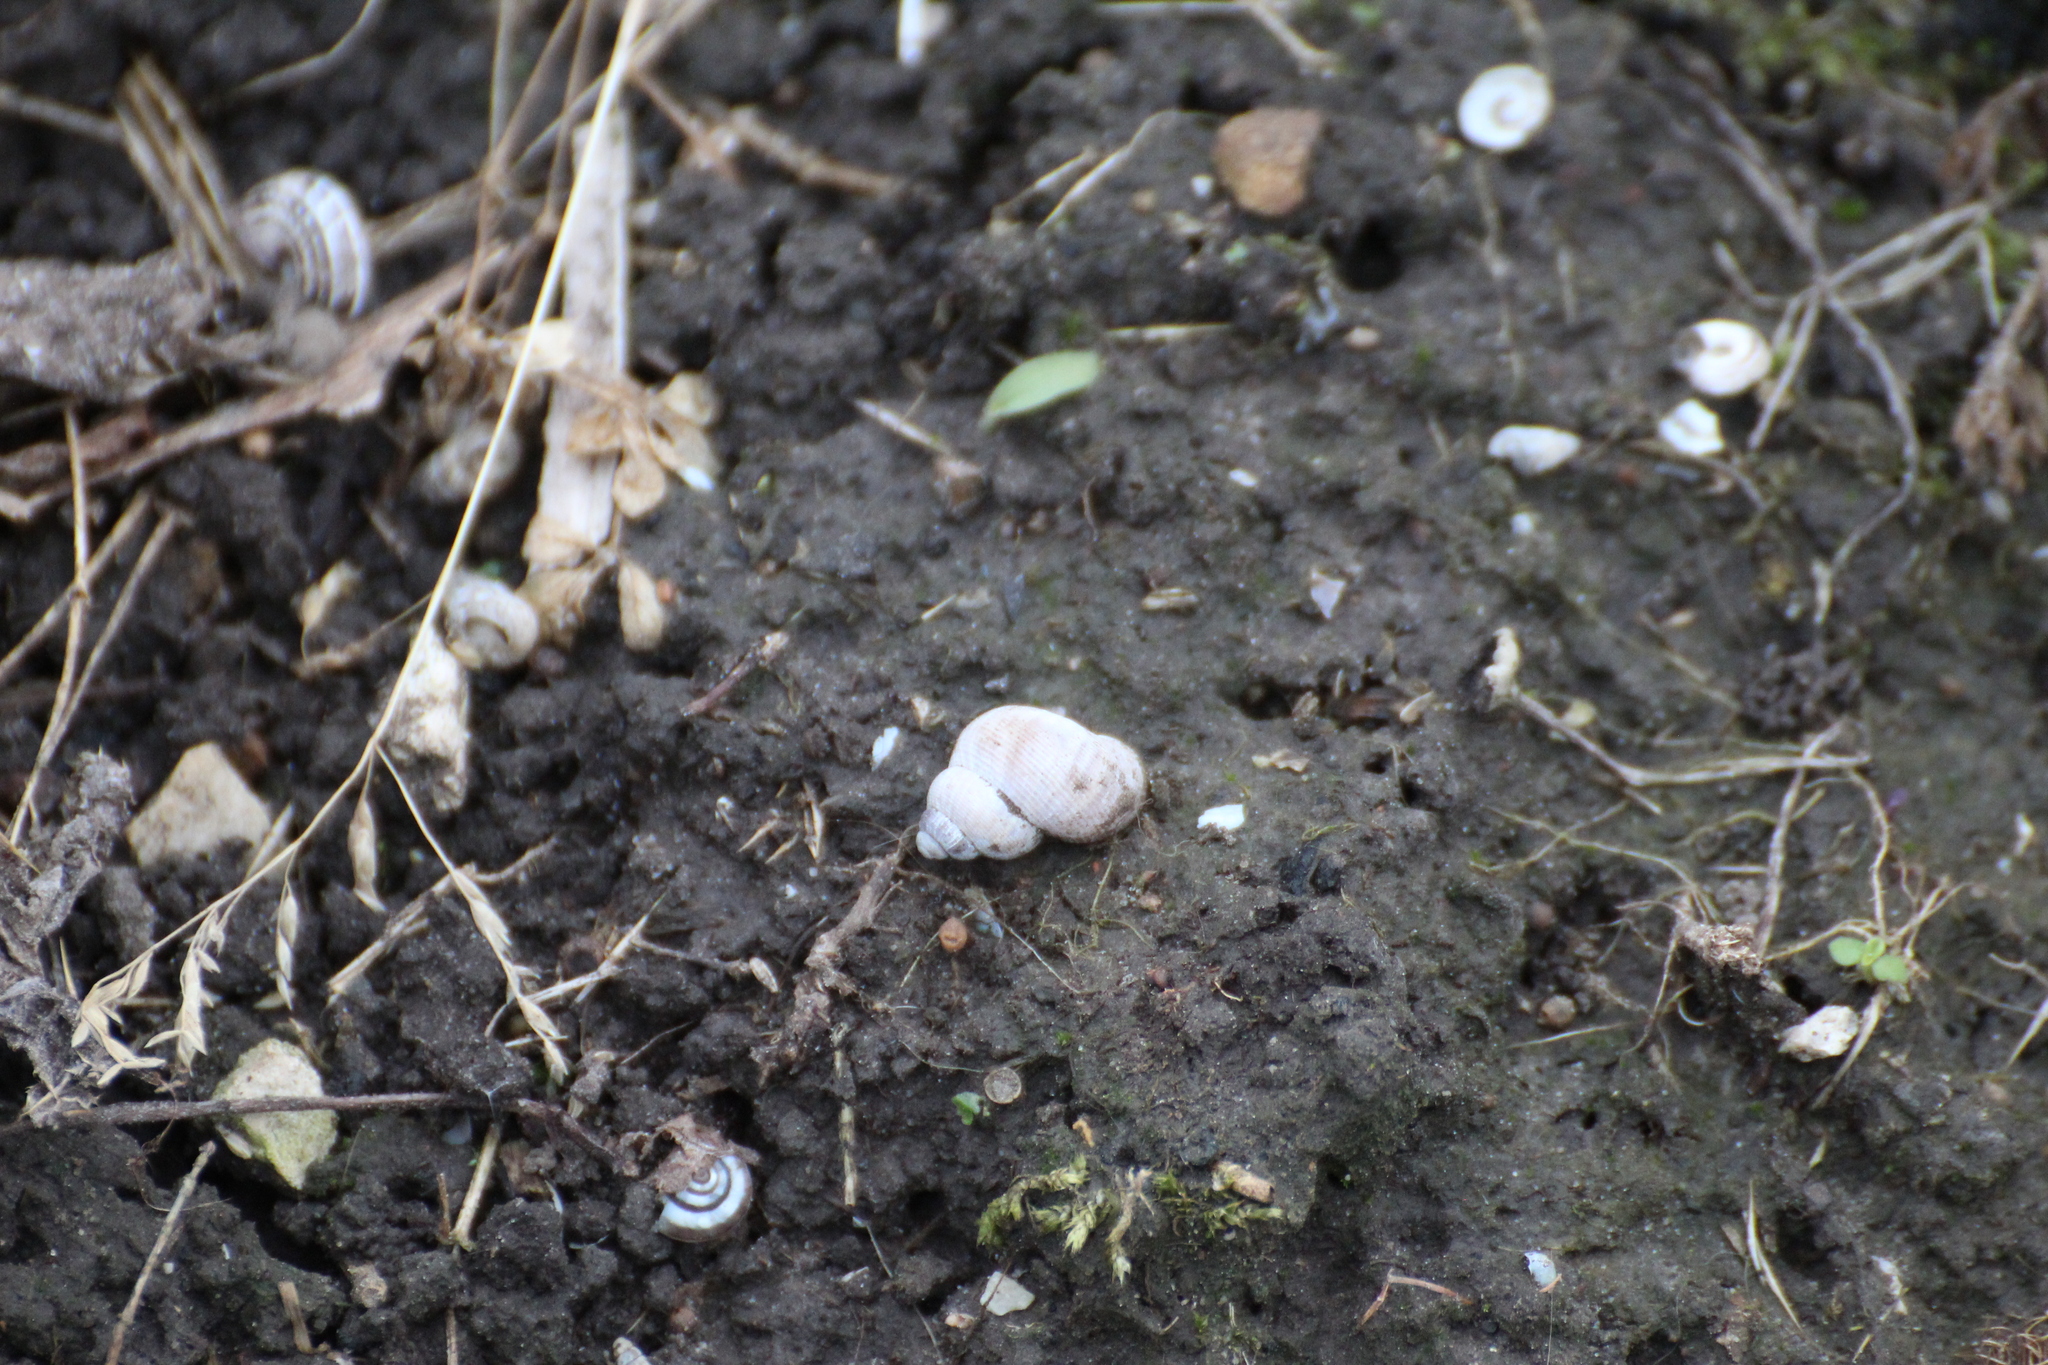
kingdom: Animalia
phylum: Mollusca
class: Gastropoda
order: Littorinimorpha
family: Pomatiidae
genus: Pomatias
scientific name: Pomatias elegans
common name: Red-mouthed snail
